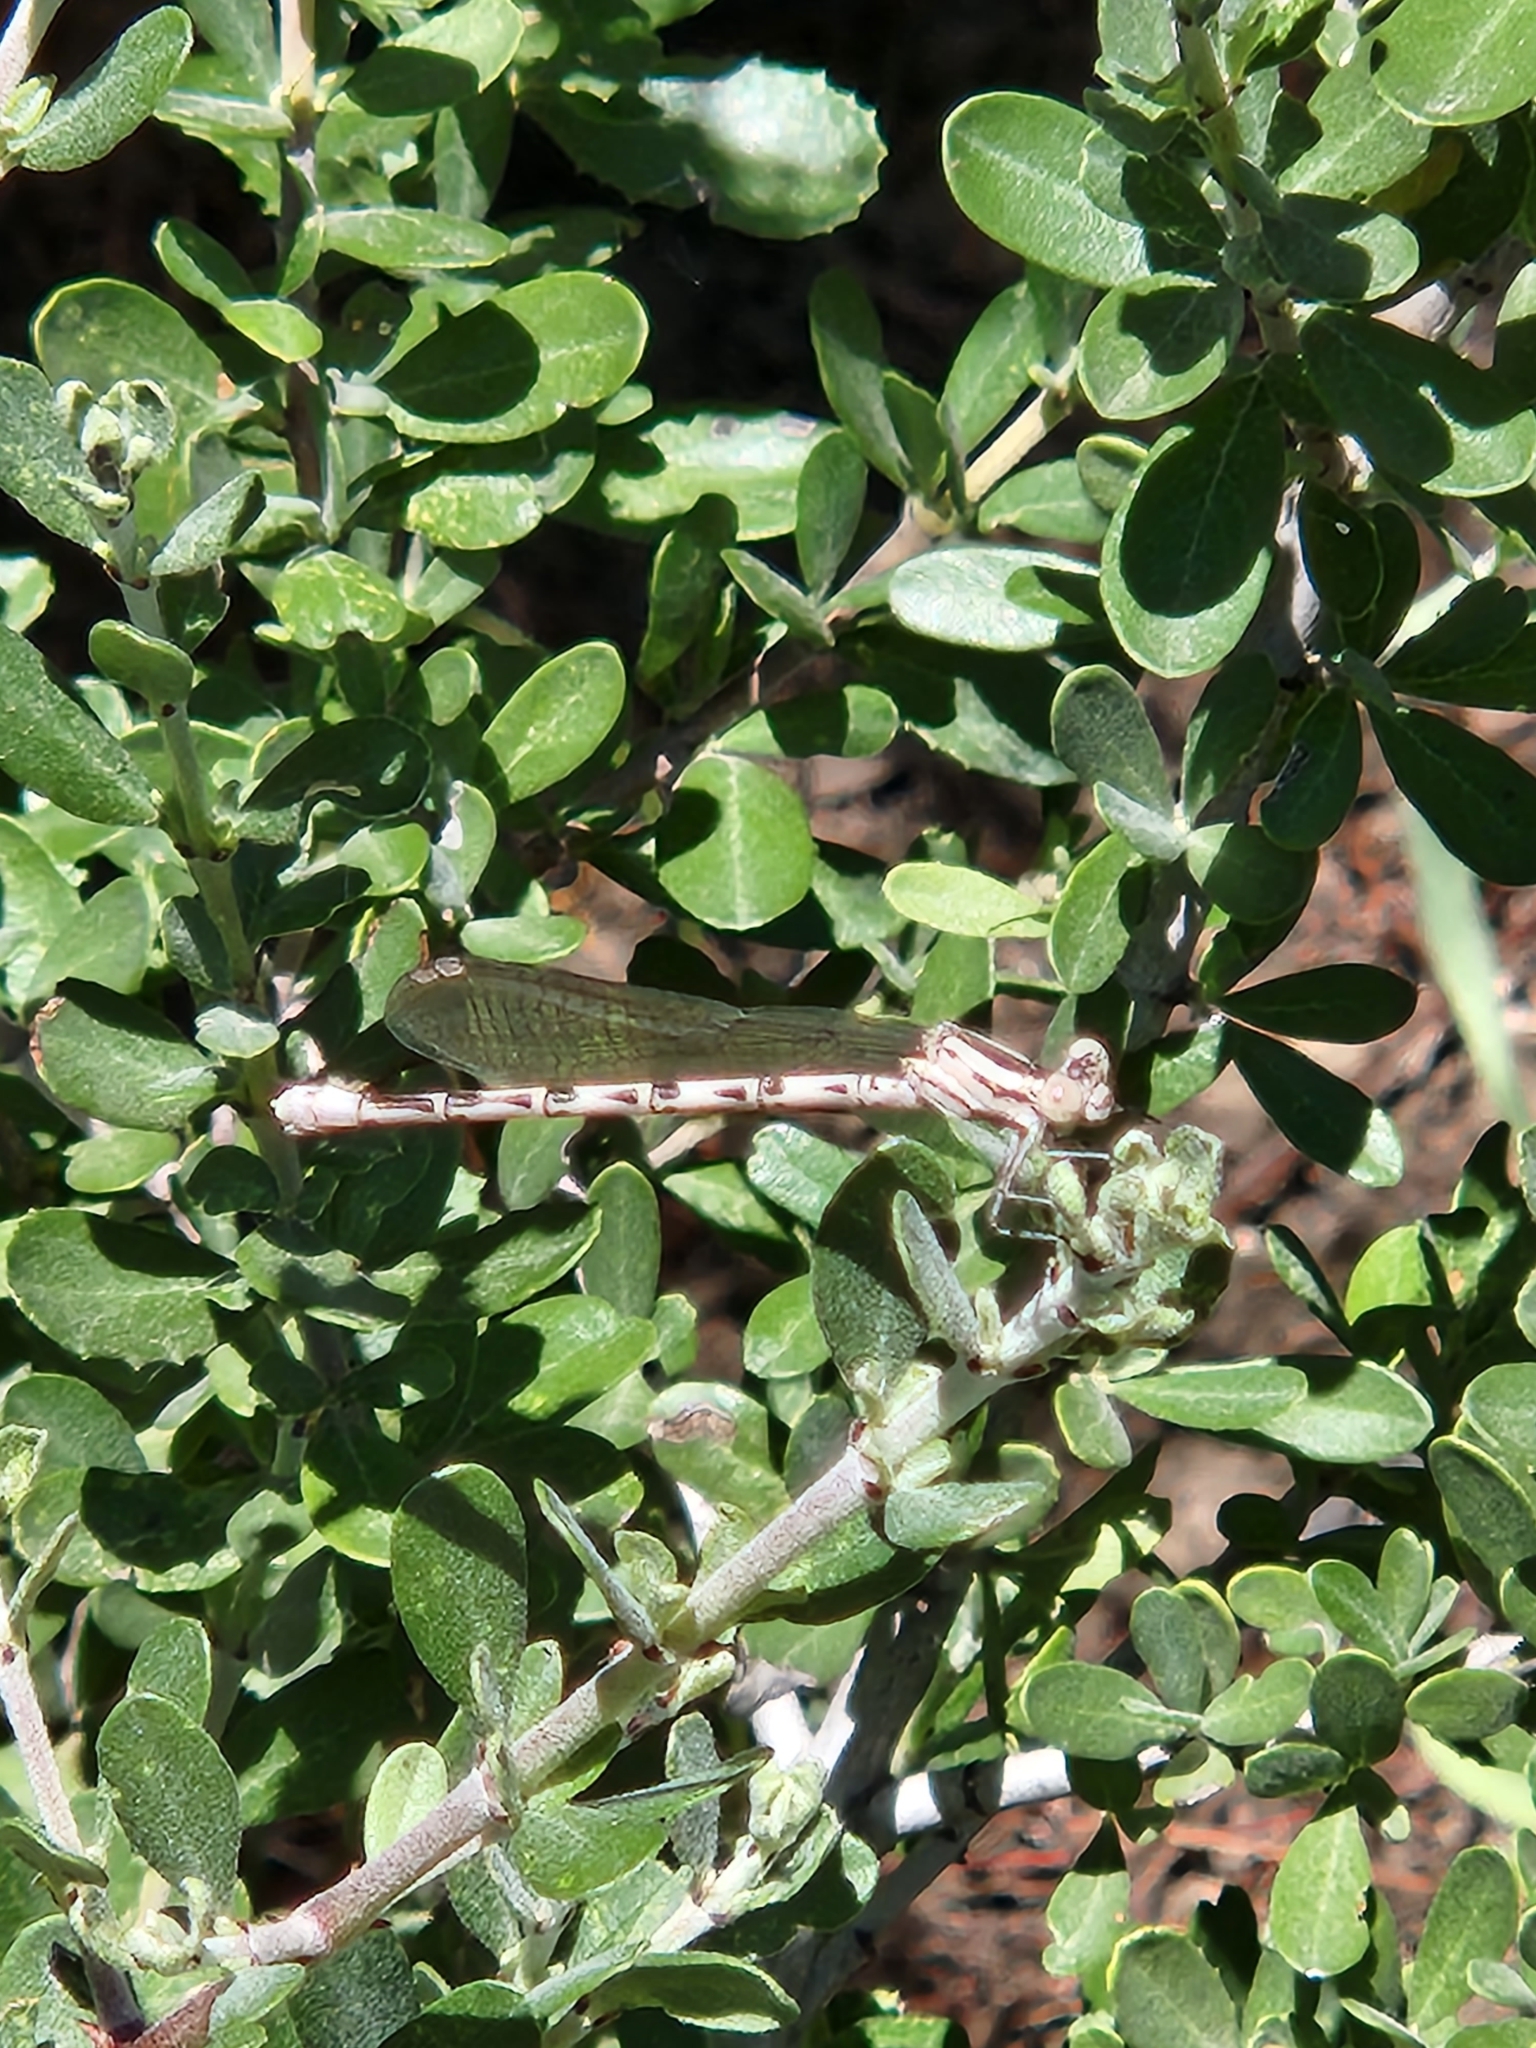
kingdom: Animalia
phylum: Arthropoda
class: Insecta
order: Odonata
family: Coenagrionidae
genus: Argia
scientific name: Argia vivida
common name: Vivid dancer
